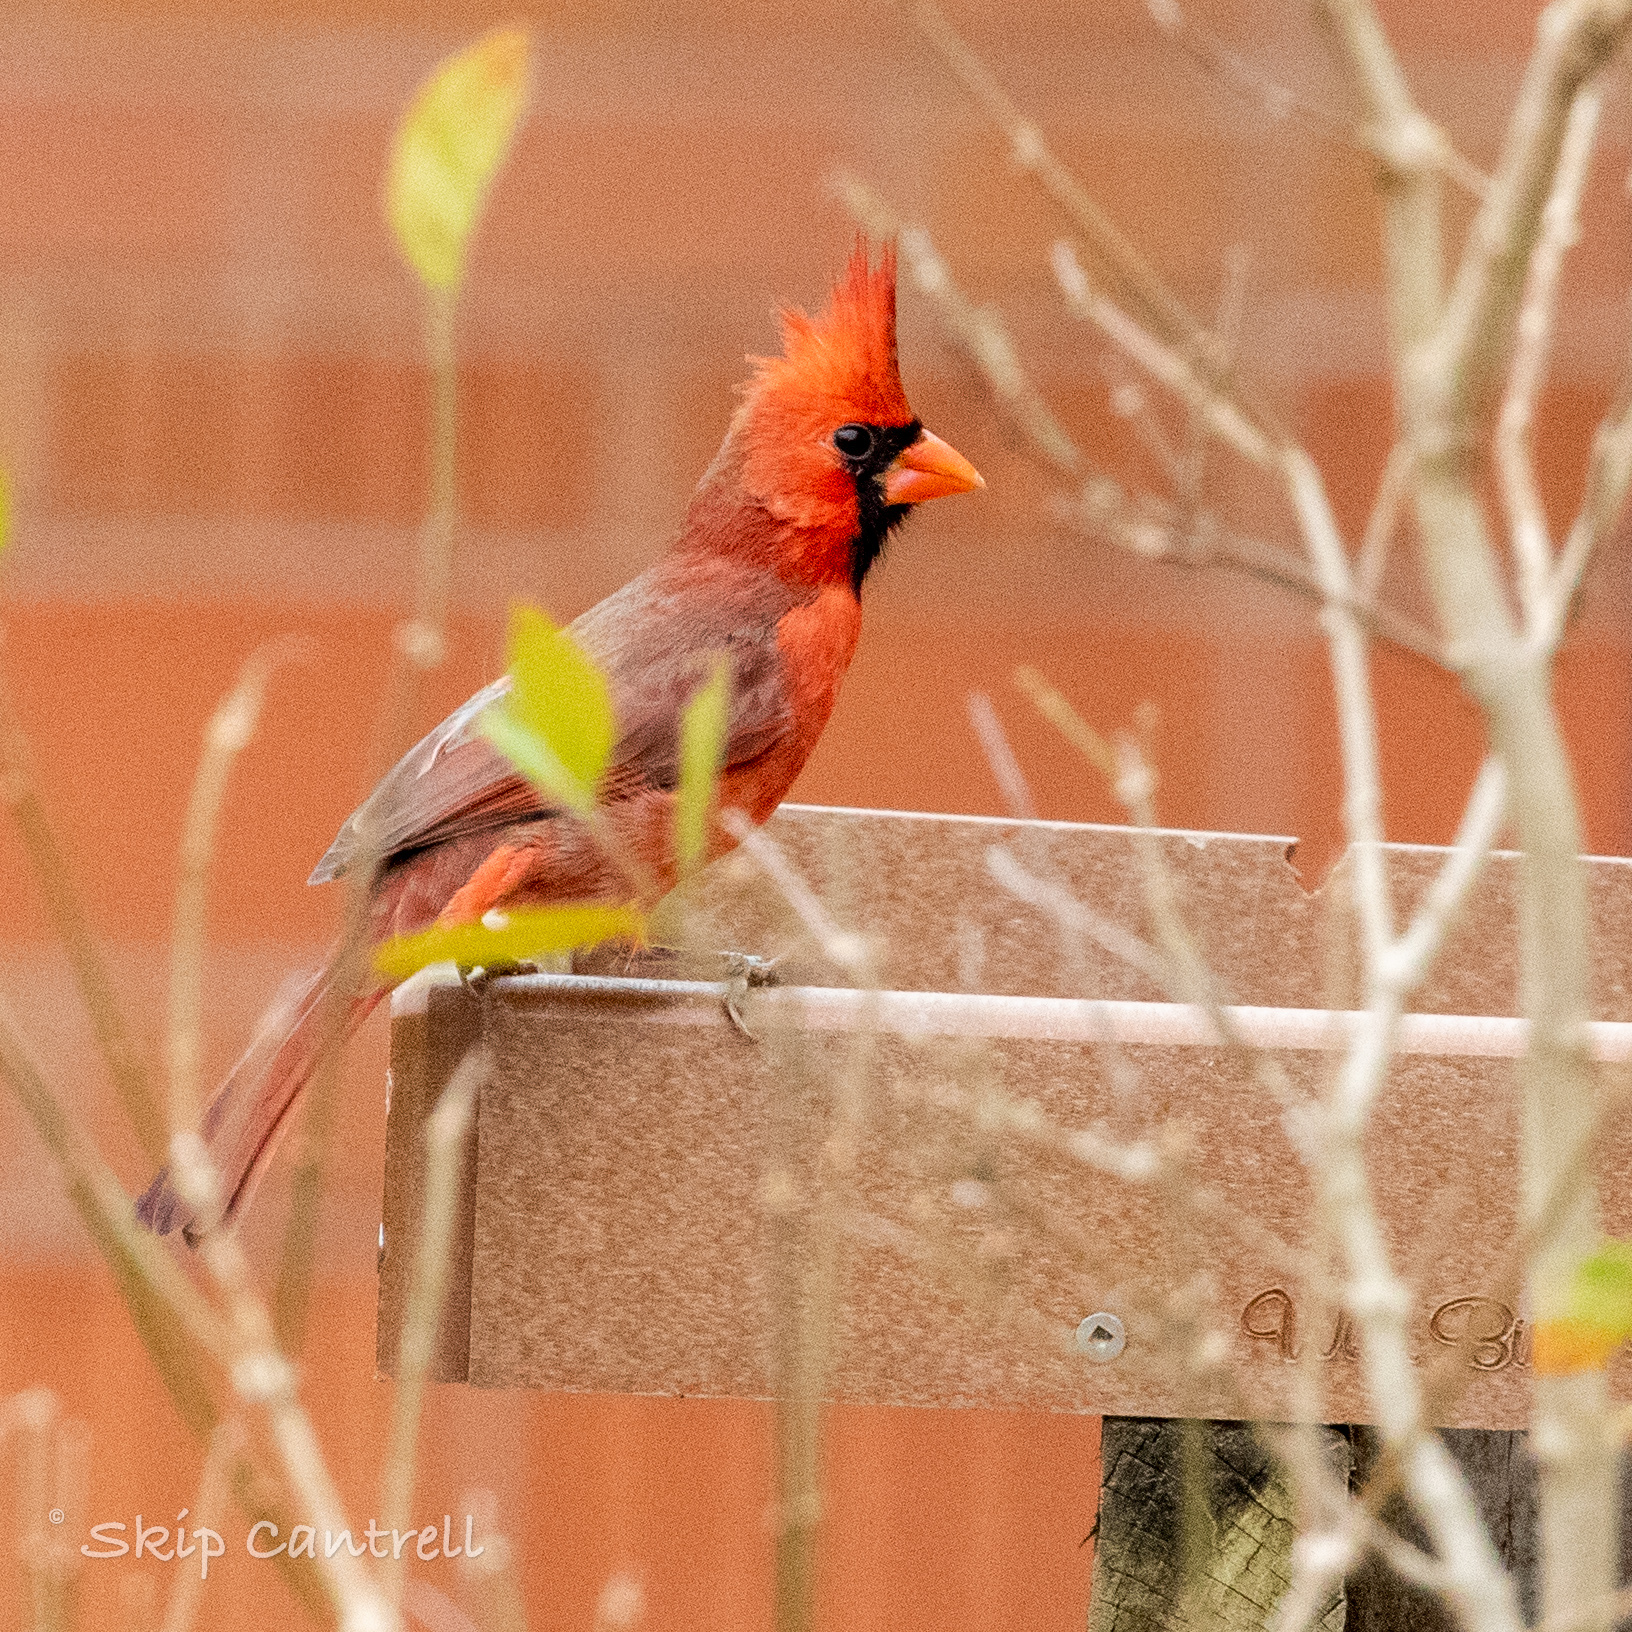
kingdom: Animalia
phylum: Chordata
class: Aves
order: Passeriformes
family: Cardinalidae
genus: Cardinalis
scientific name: Cardinalis cardinalis
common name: Northern cardinal
